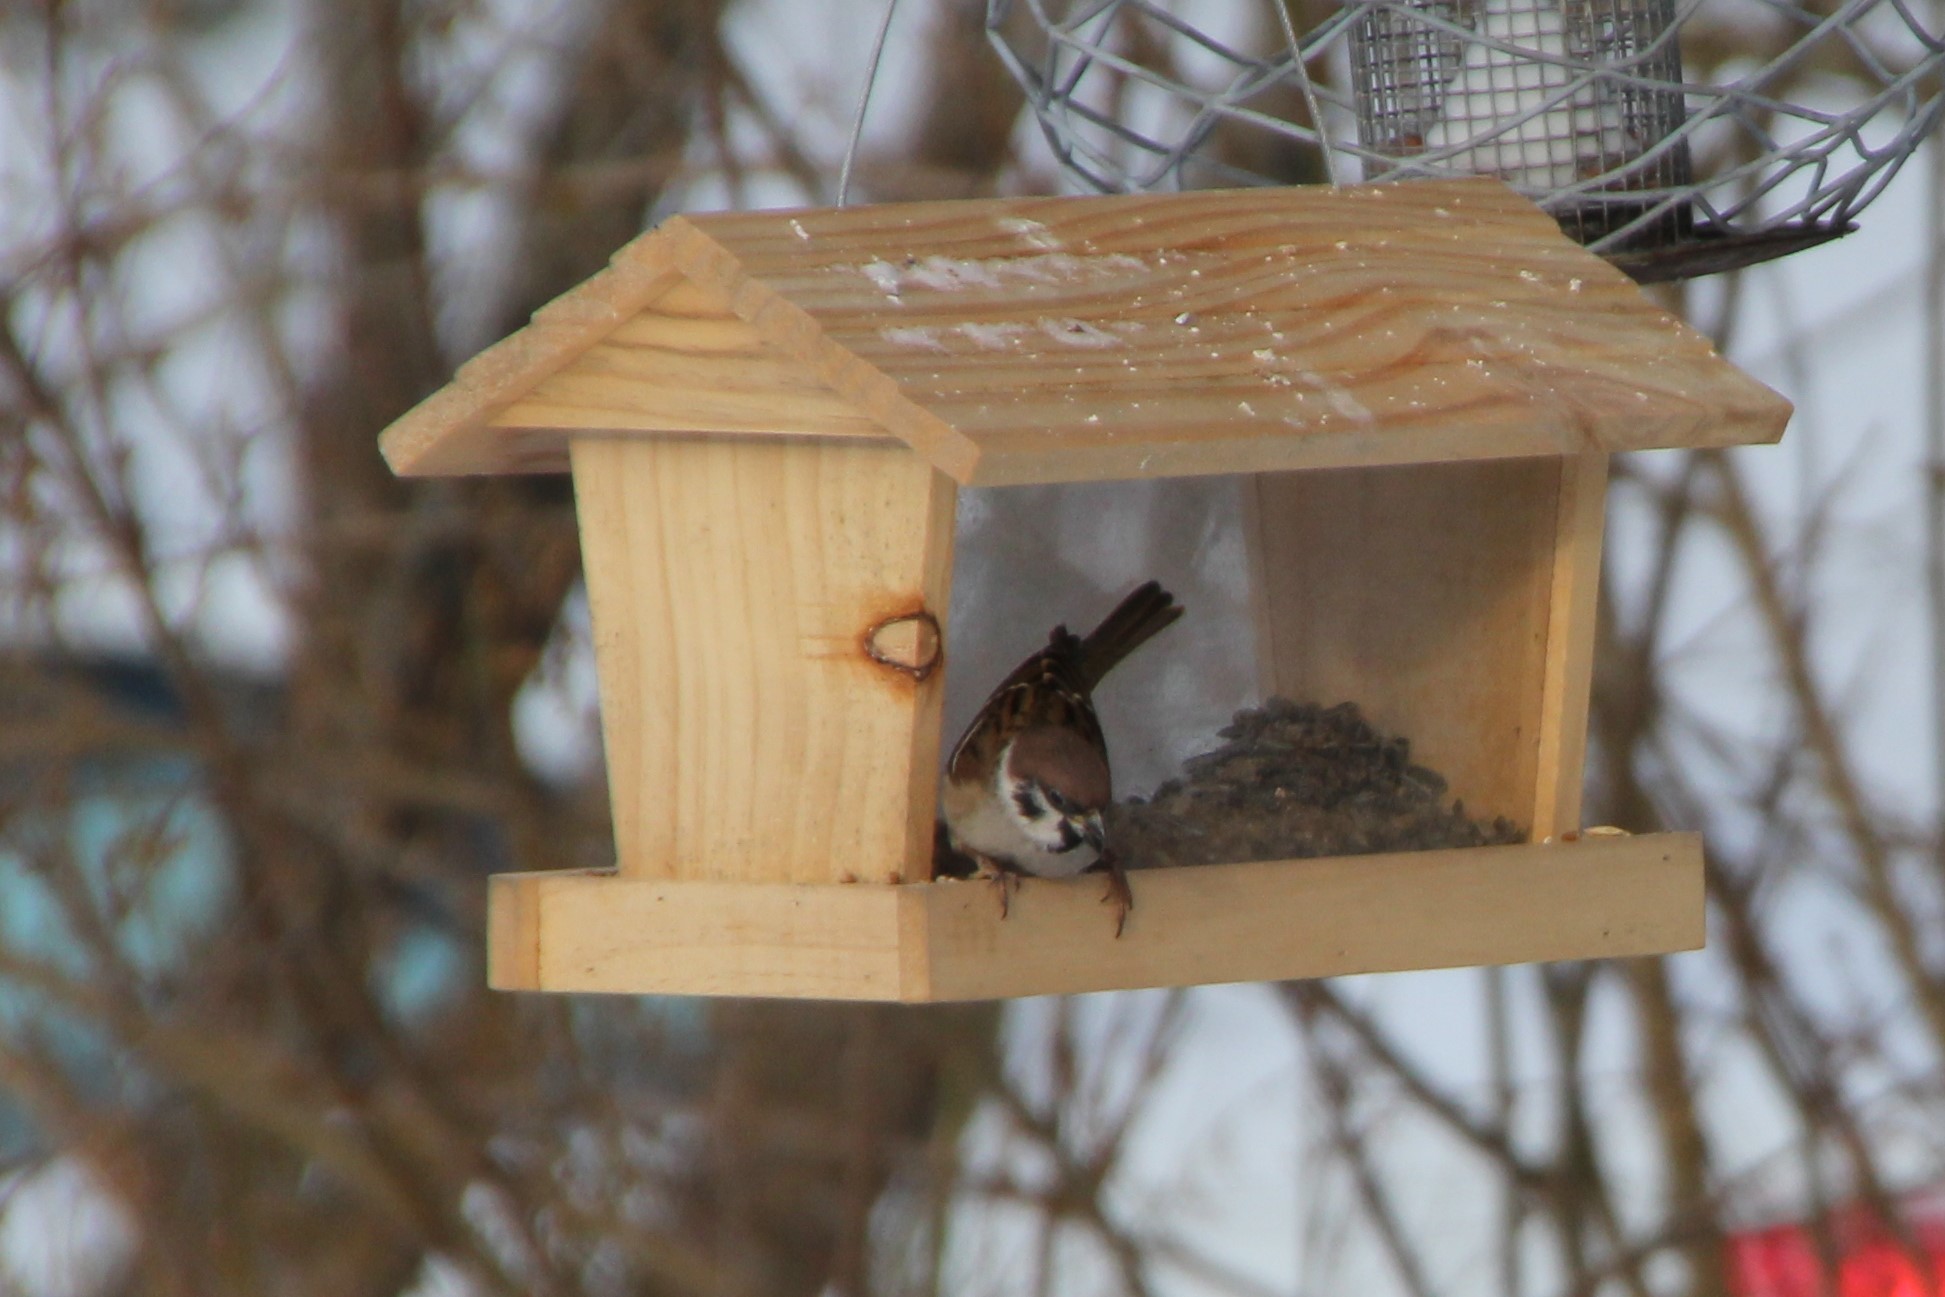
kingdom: Animalia
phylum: Chordata
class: Aves
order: Passeriformes
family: Passeridae
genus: Passer
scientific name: Passer montanus
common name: Eurasian tree sparrow
